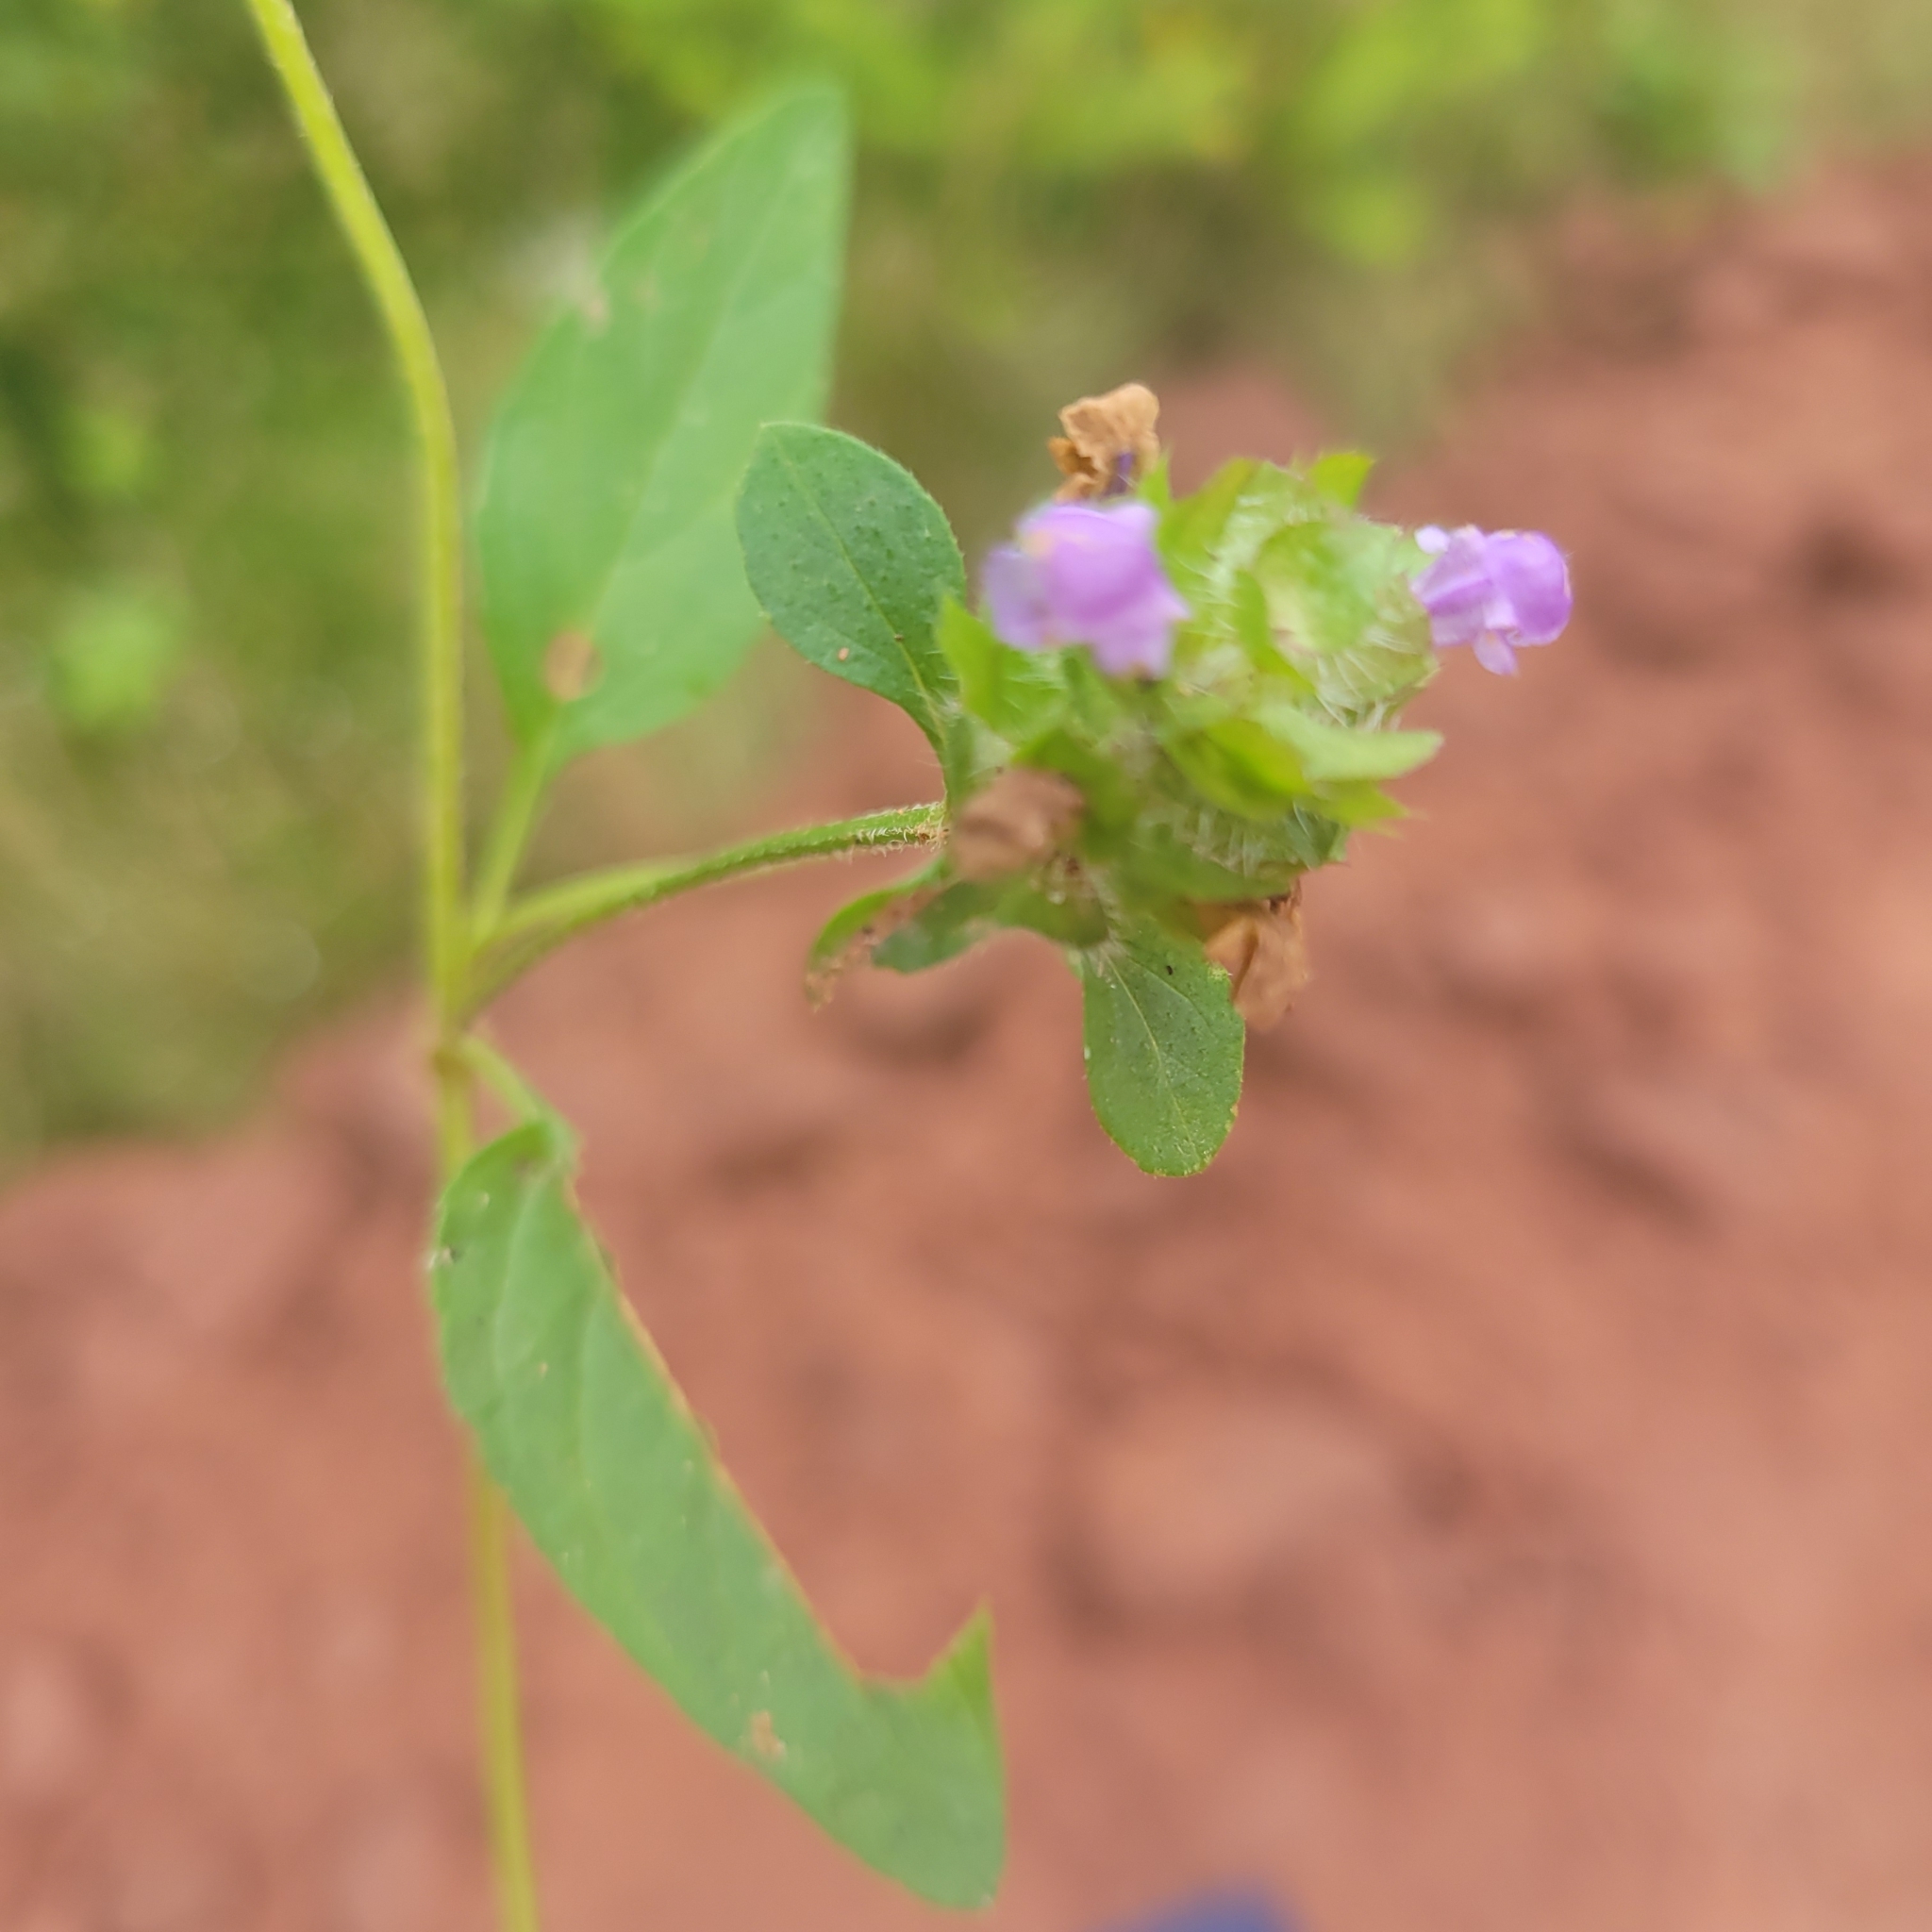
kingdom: Plantae
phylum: Tracheophyta
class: Magnoliopsida
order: Lamiales
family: Lamiaceae
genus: Prunella
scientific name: Prunella vulgaris
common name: Heal-all
